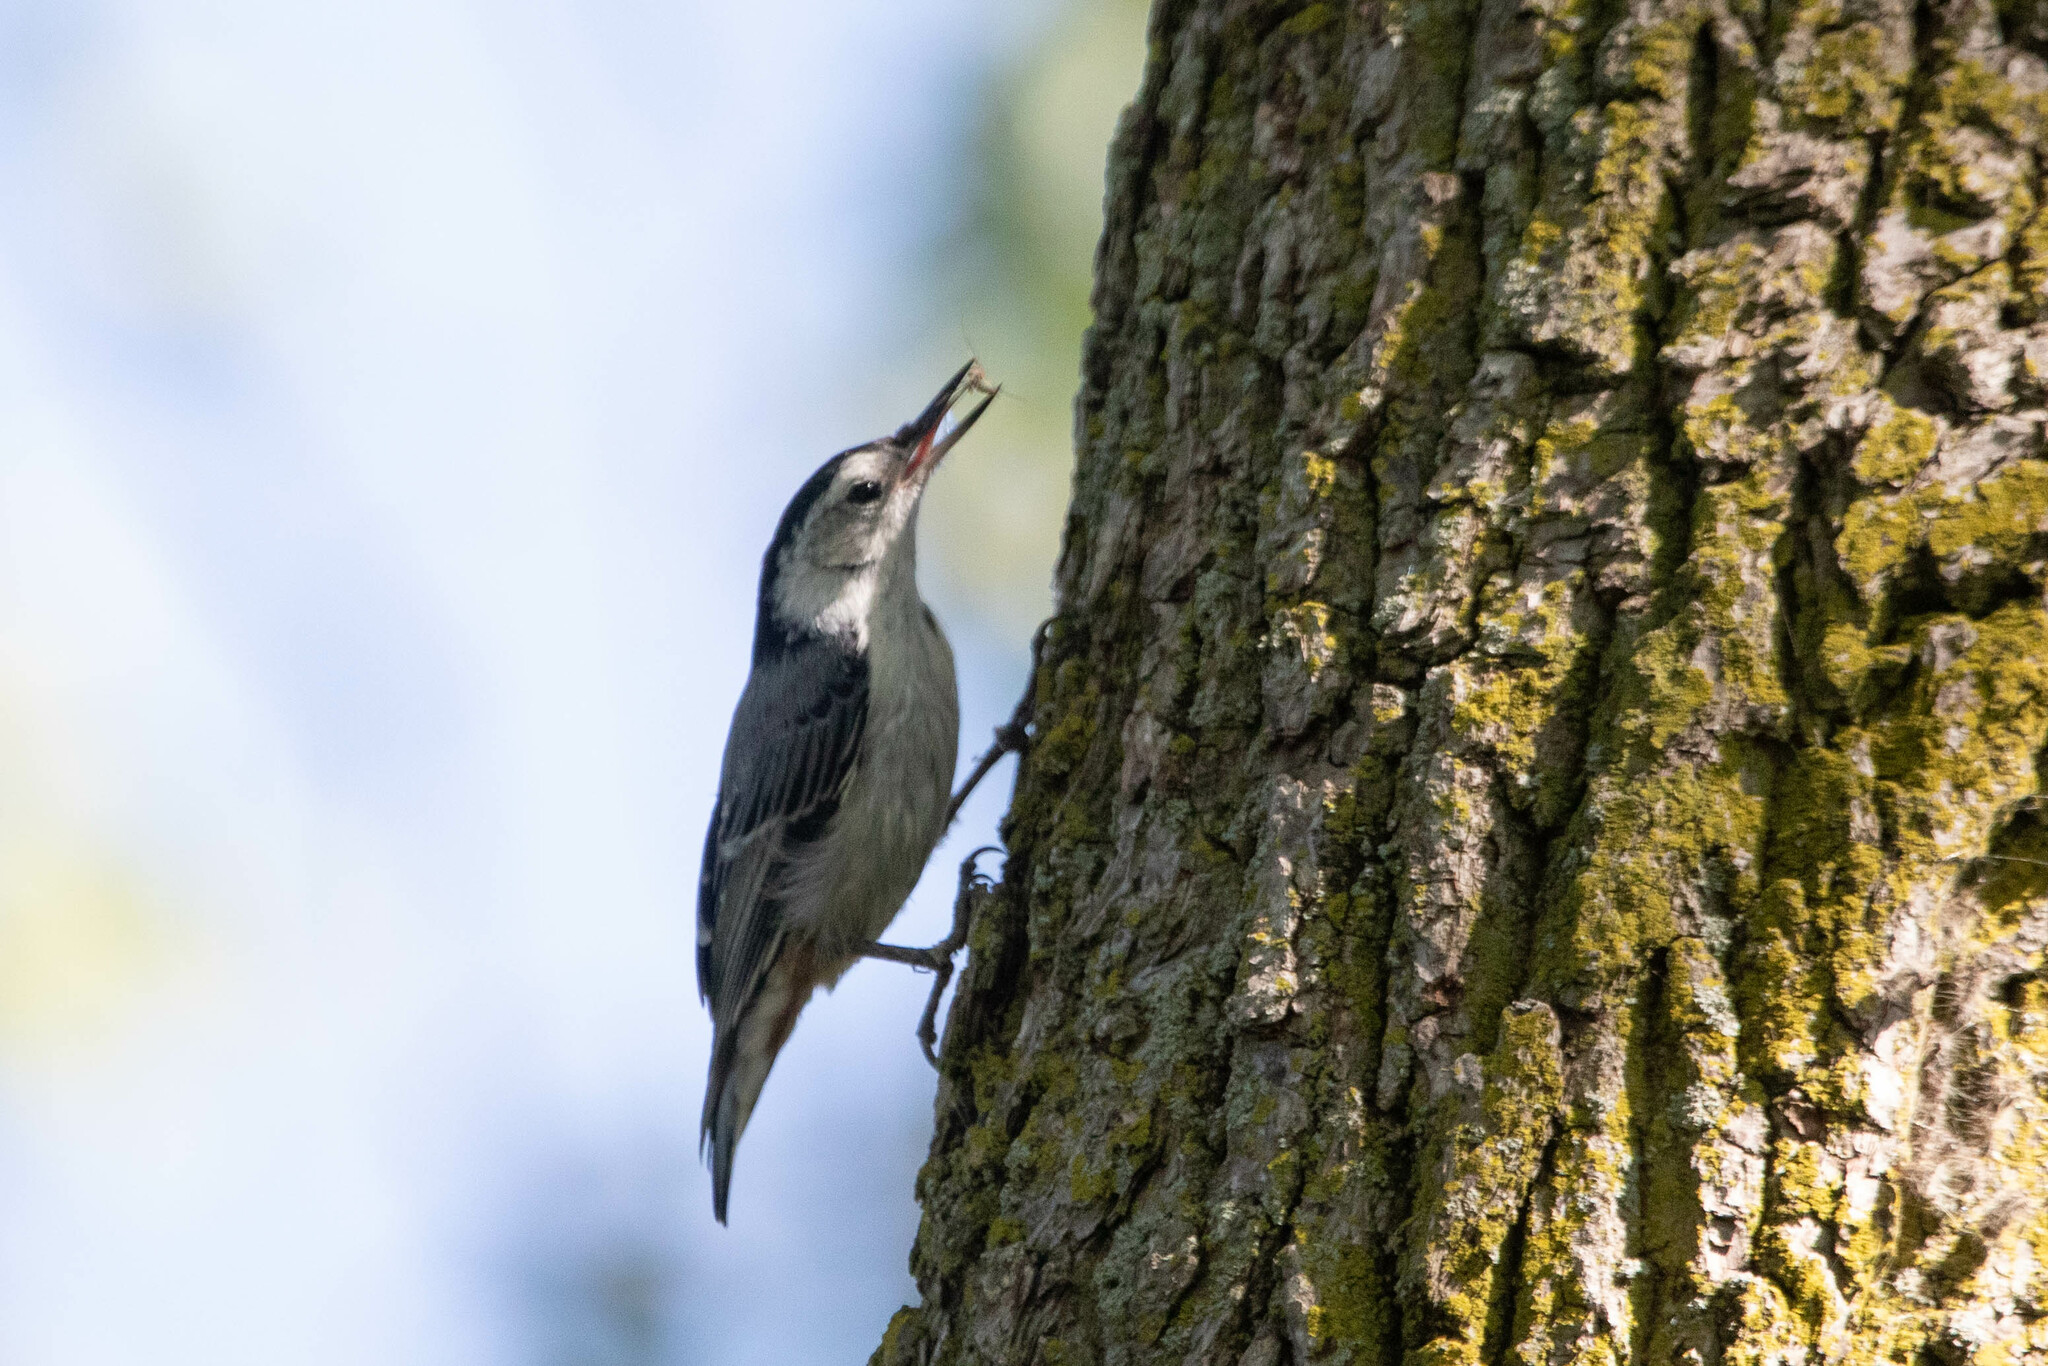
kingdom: Animalia
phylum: Chordata
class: Aves
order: Passeriformes
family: Sittidae
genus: Sitta
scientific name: Sitta carolinensis
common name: White-breasted nuthatch
